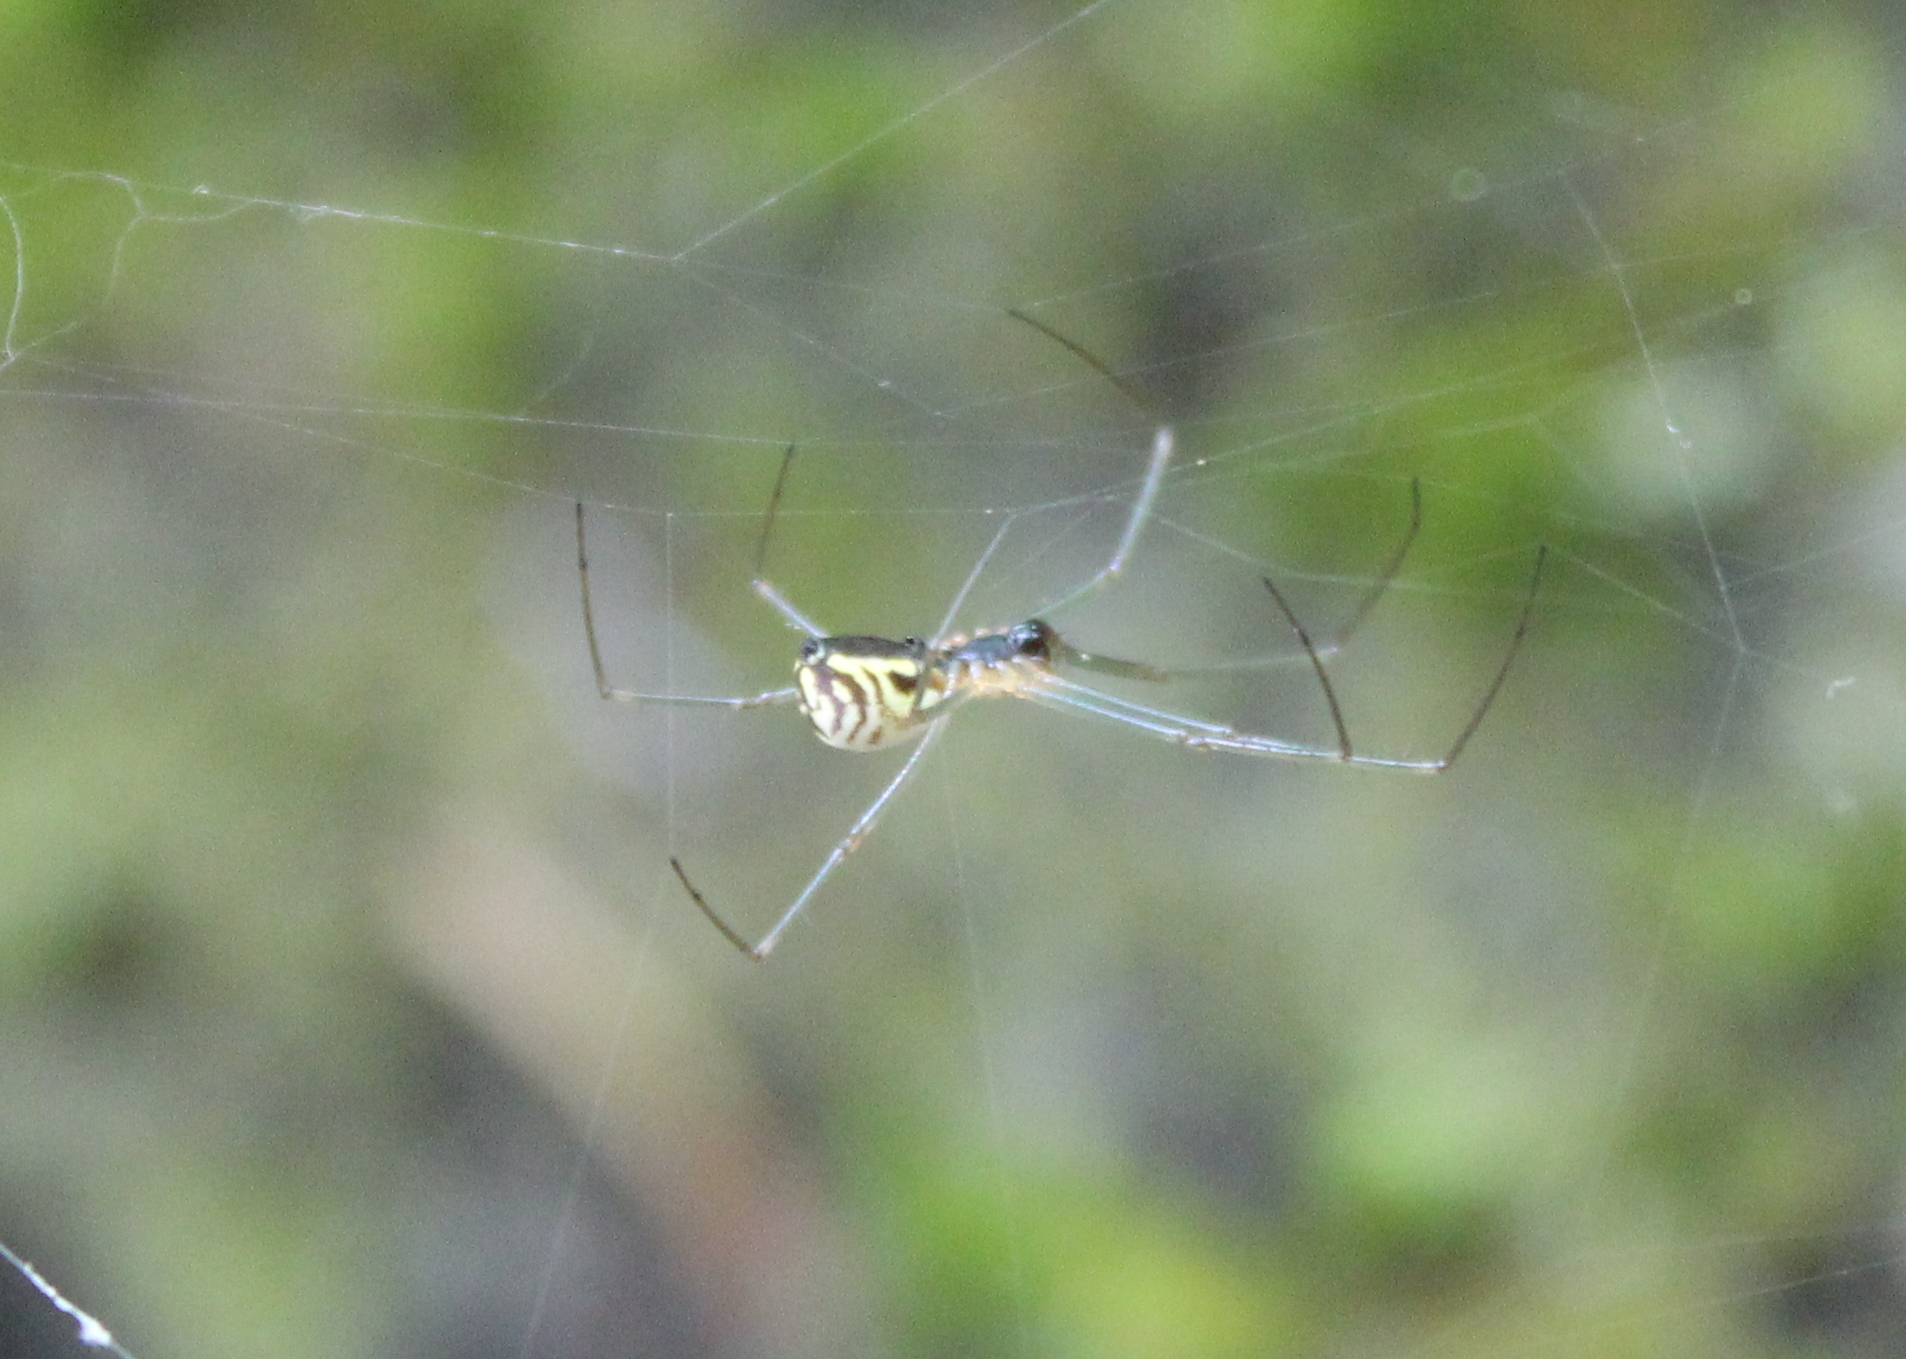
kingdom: Animalia
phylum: Arthropoda
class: Arachnida
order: Araneae
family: Linyphiidae
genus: Neriene
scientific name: Neriene radiata
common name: Filmy dome spider
